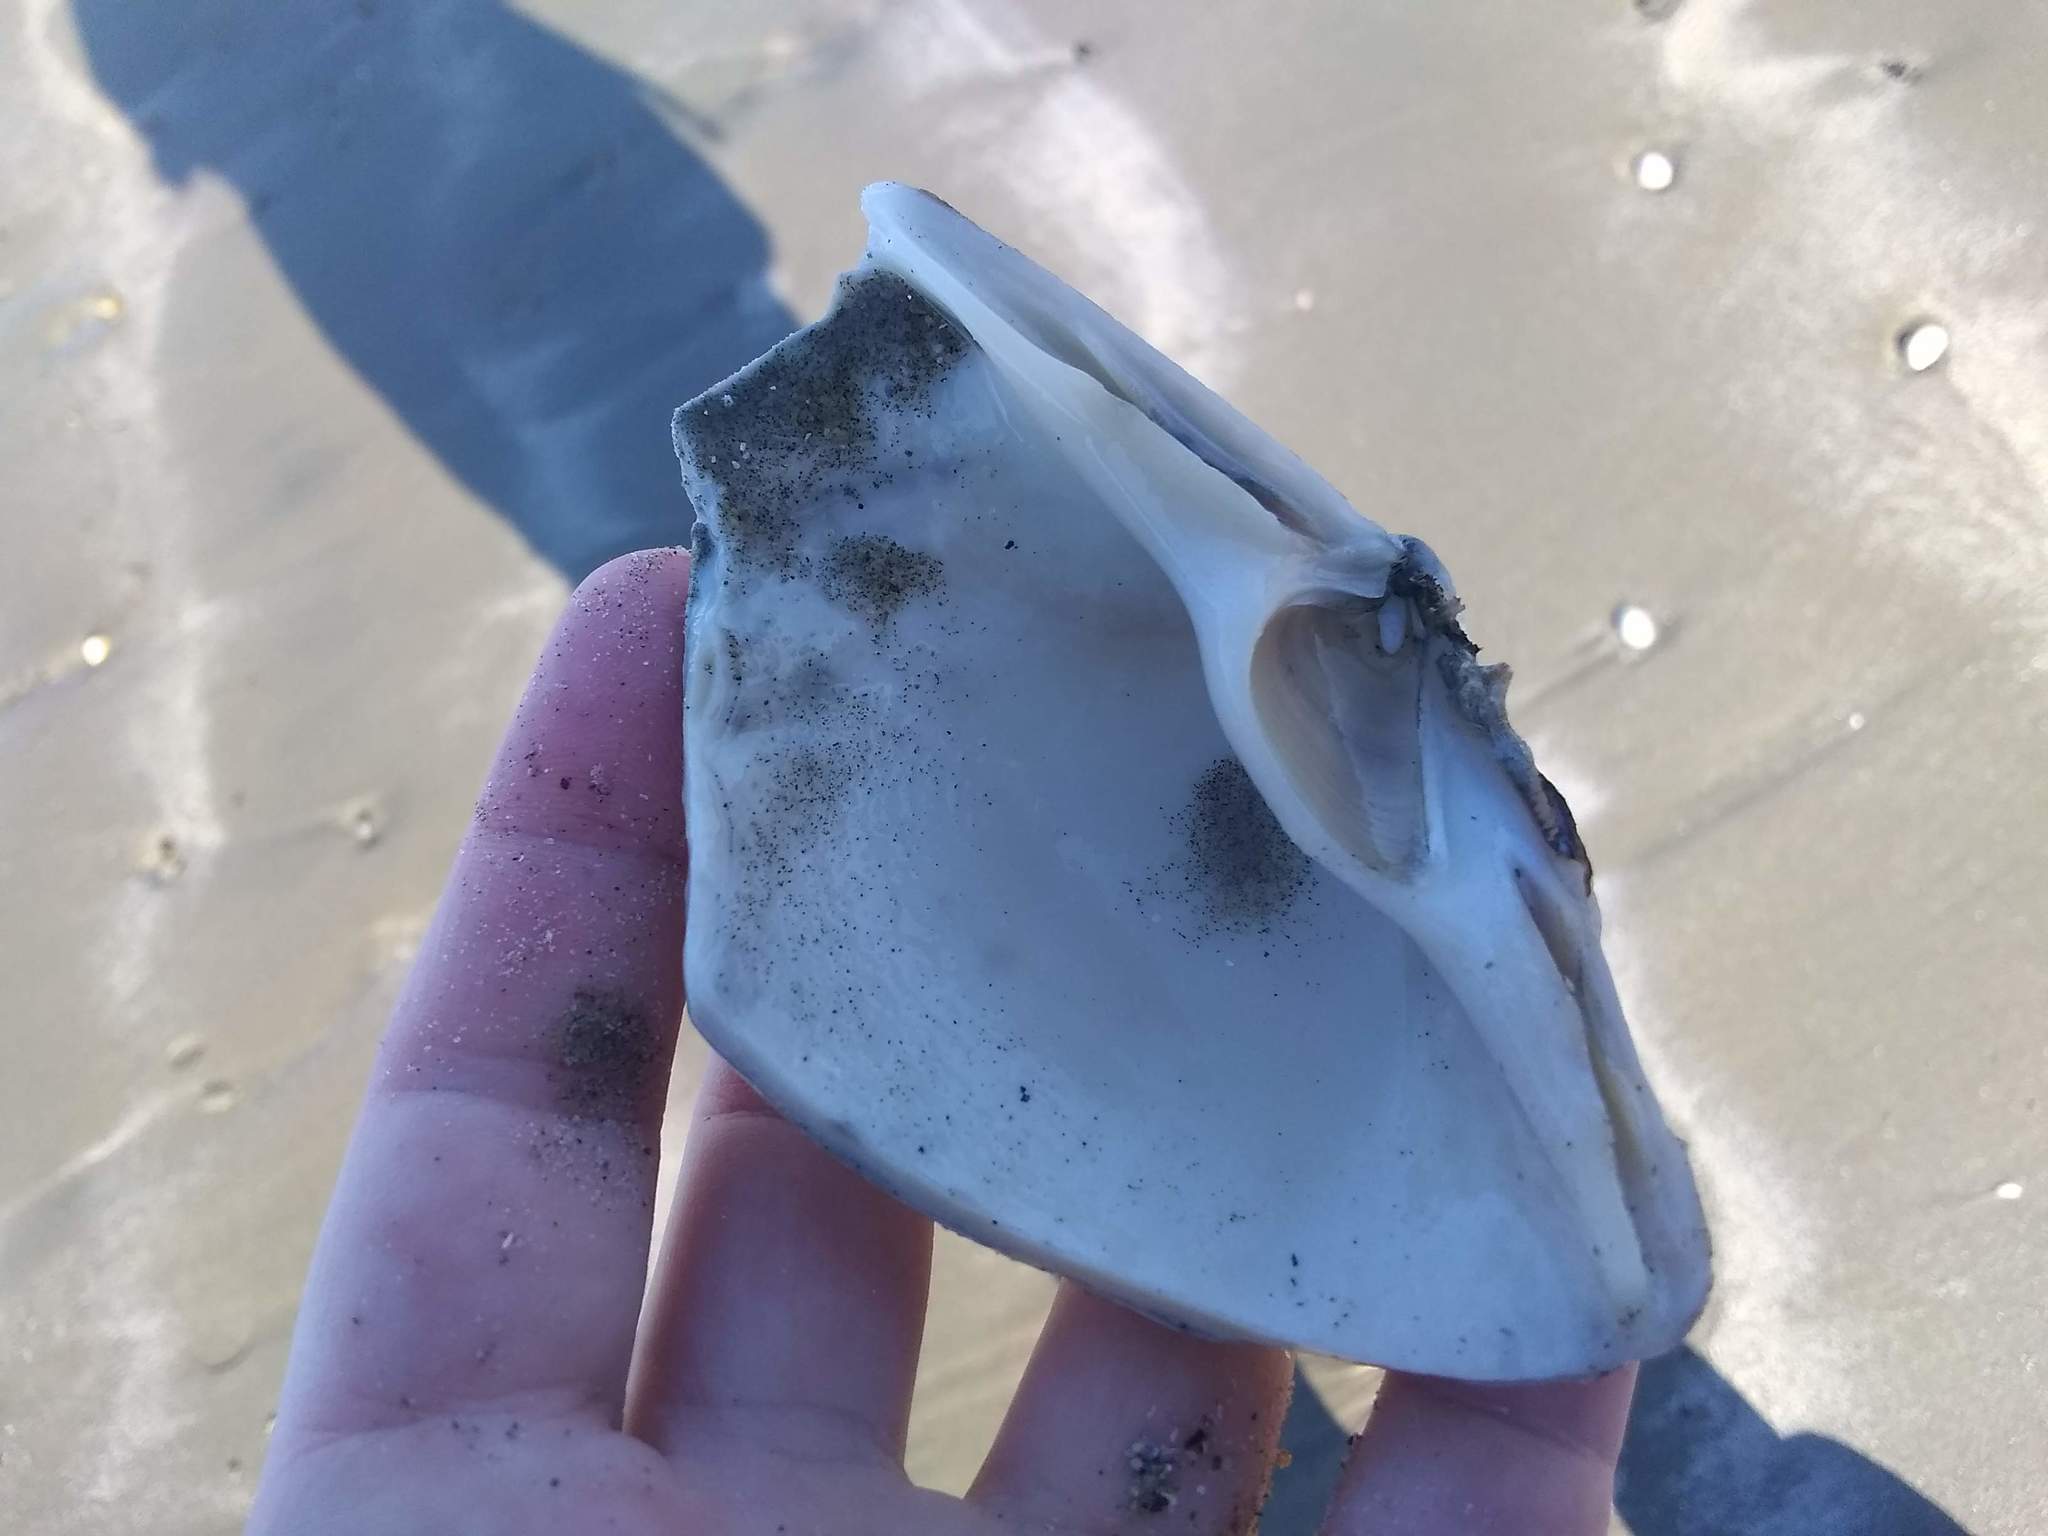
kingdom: Animalia
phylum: Mollusca
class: Bivalvia
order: Venerida
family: Mactridae
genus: Spisula
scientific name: Spisula solidissima
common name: Atlantic surf clam
